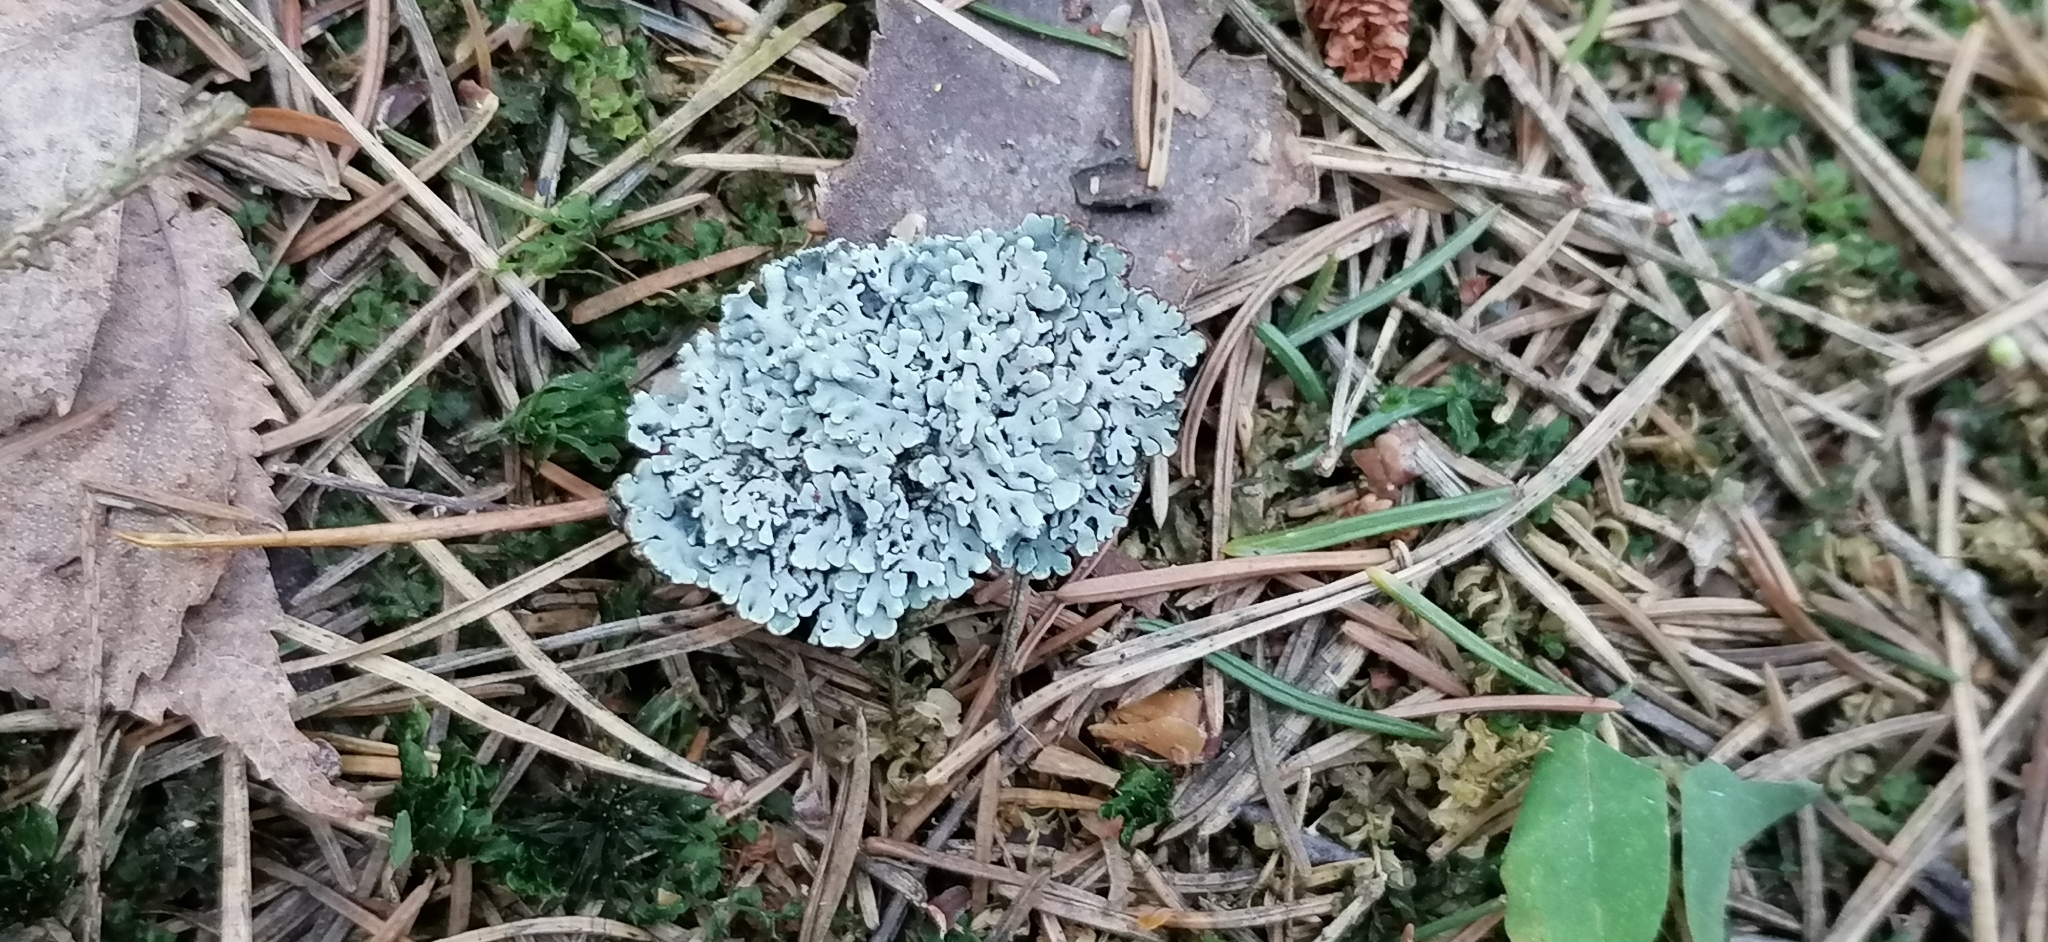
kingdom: Fungi
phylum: Ascomycota
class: Lecanoromycetes
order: Lecanorales
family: Parmeliaceae
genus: Hypogymnia
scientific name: Hypogymnia physodes
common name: Dark crottle
